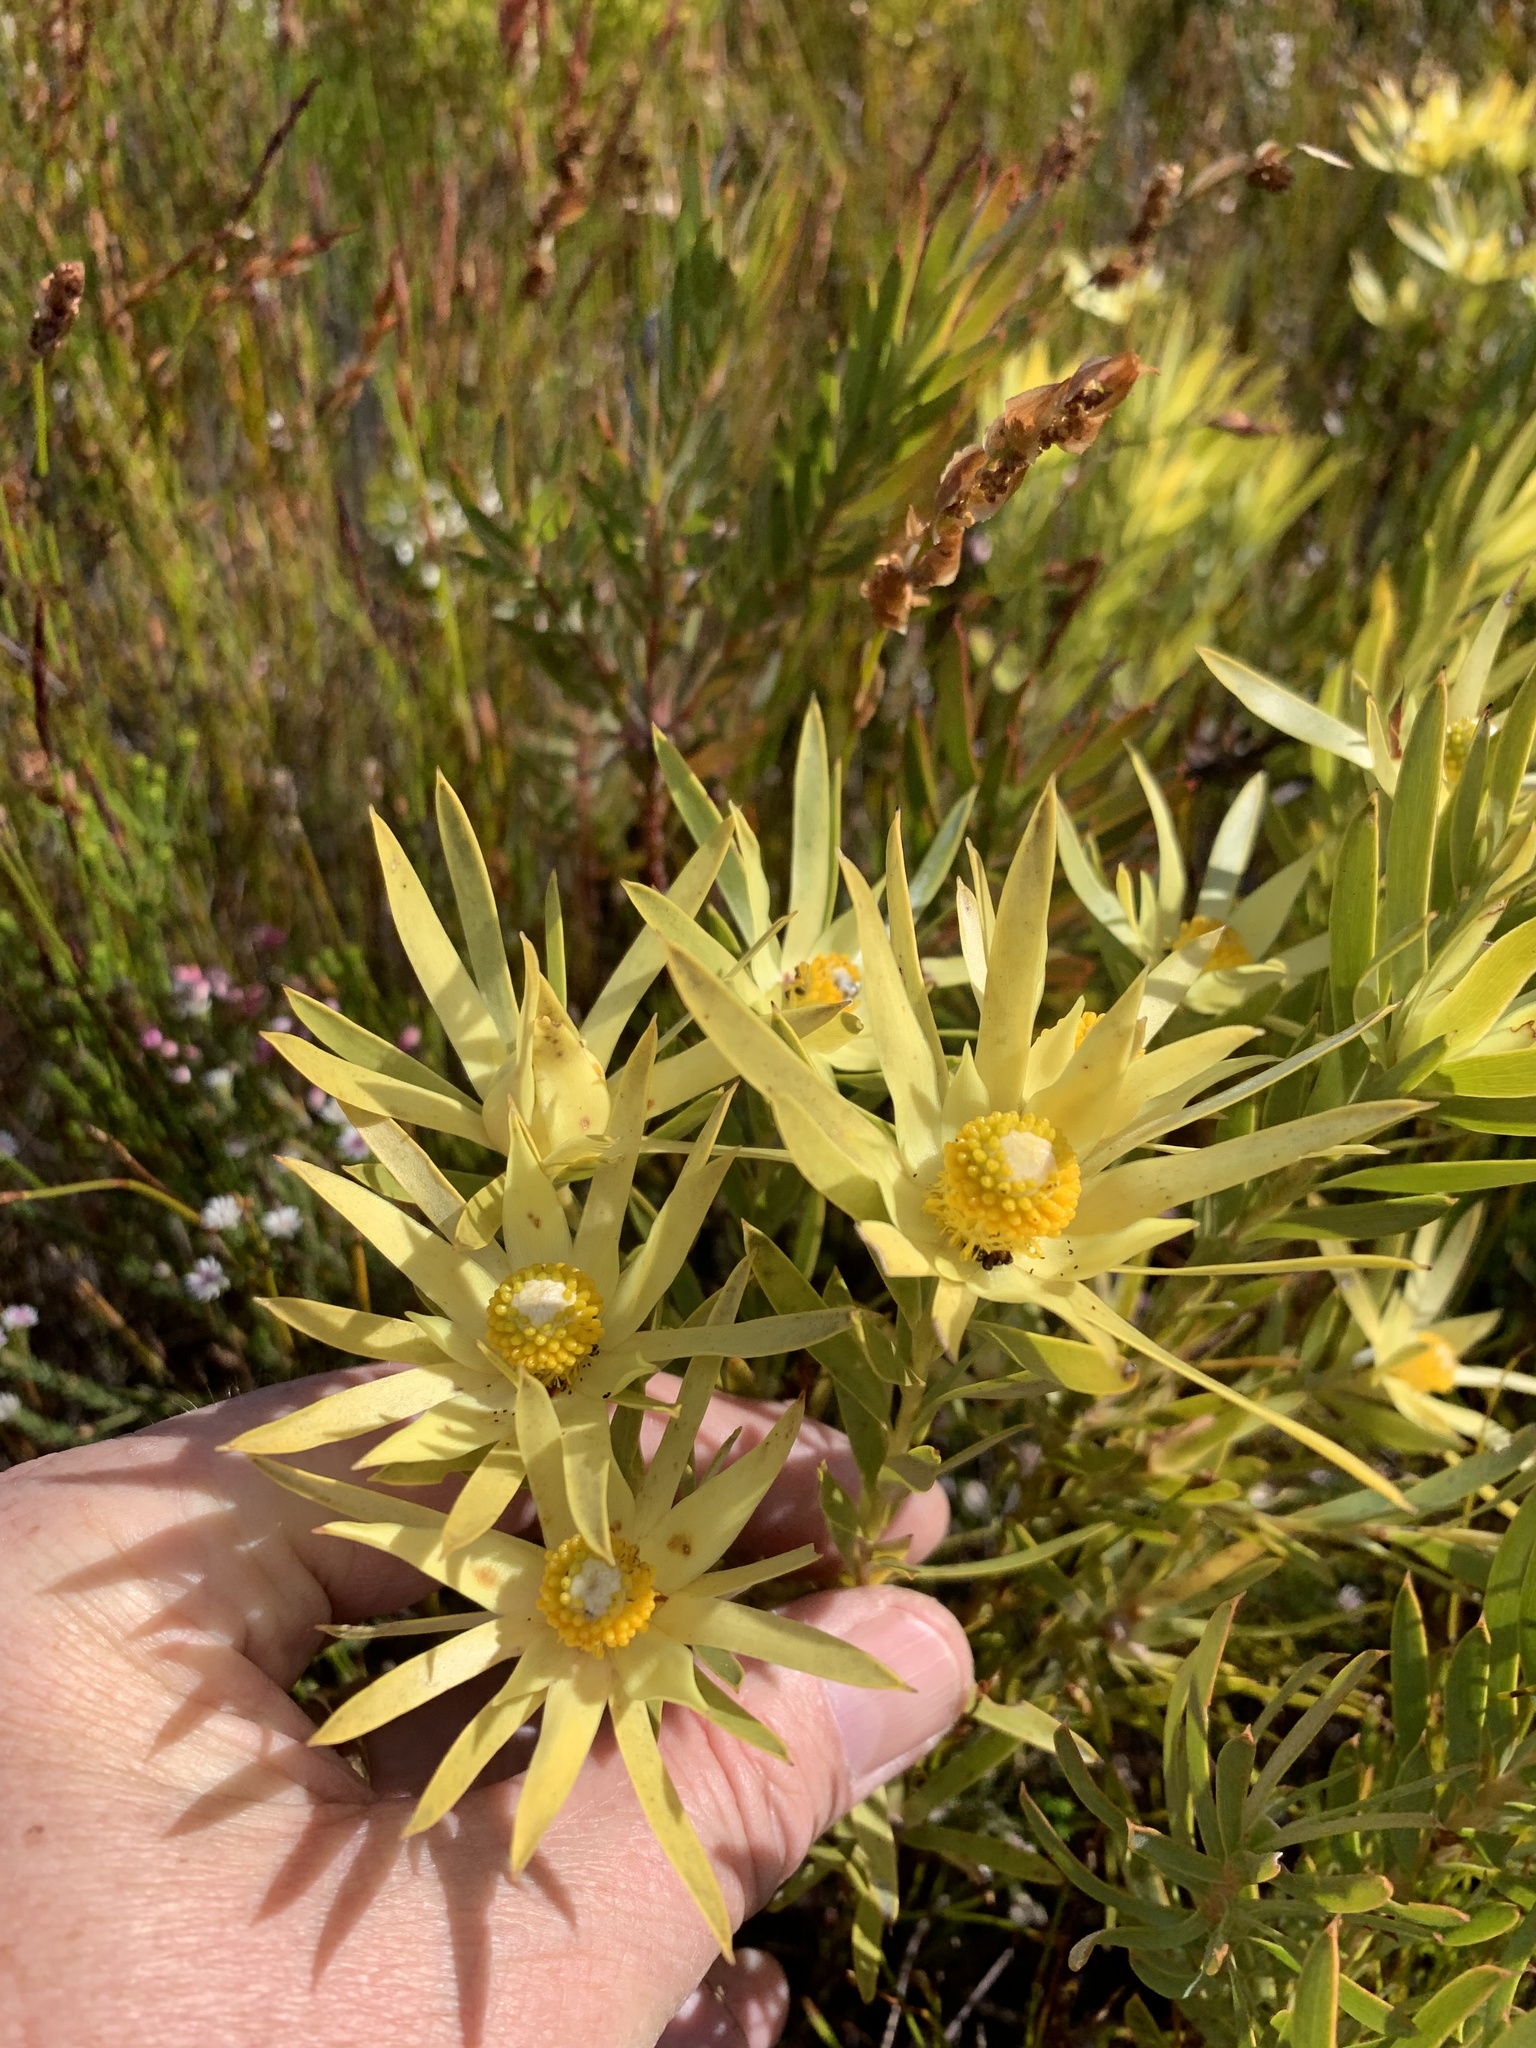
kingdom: Plantae
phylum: Tracheophyta
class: Magnoliopsida
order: Proteales
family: Proteaceae
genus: Leucadendron
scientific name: Leucadendron xanthoconus
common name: Sickle-leaf conebush
